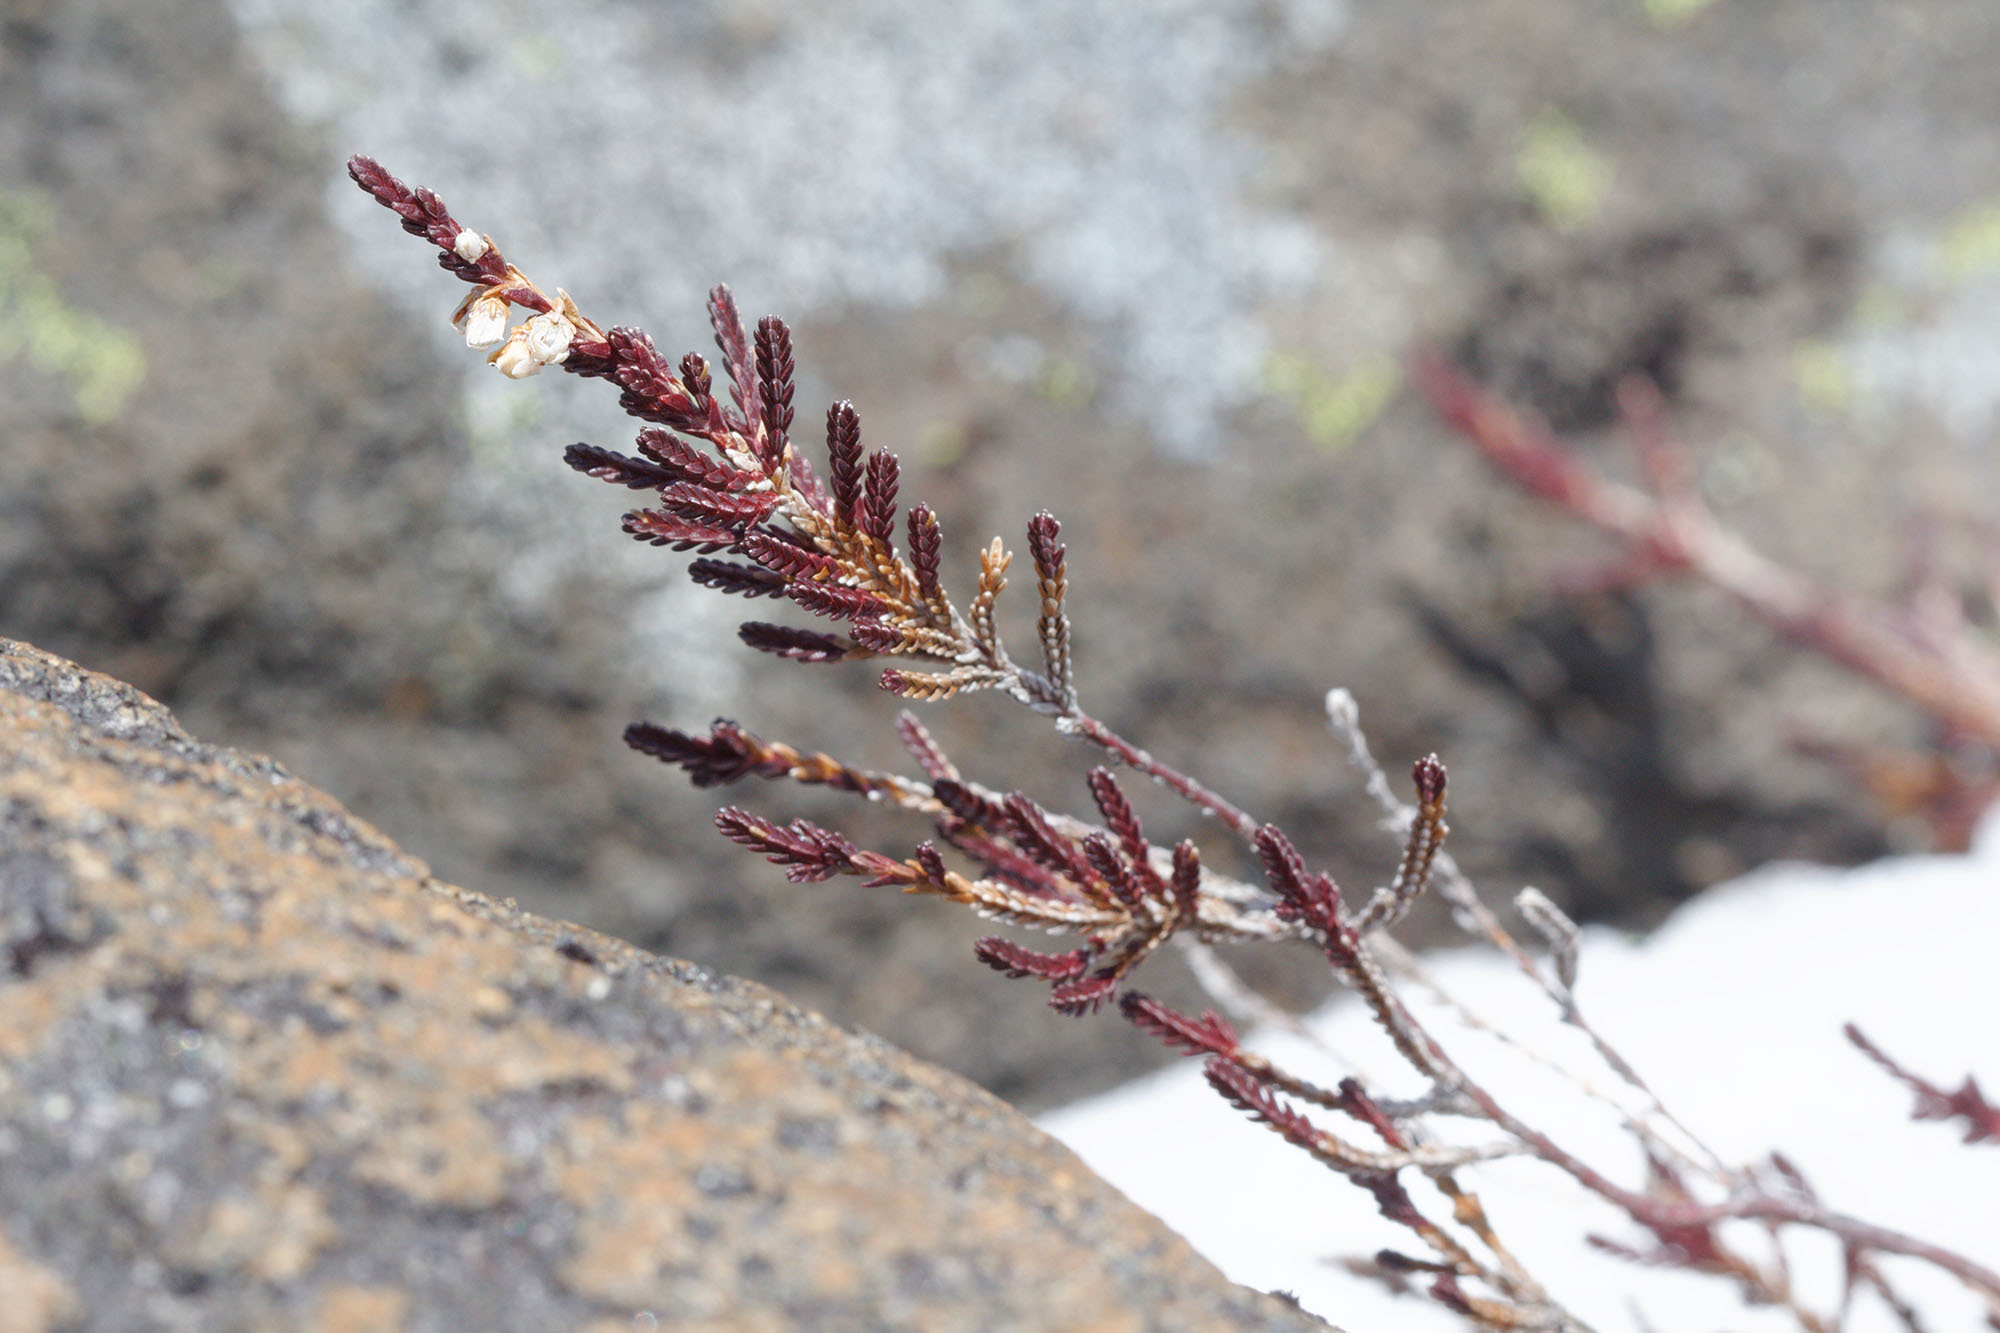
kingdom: Plantae
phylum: Tracheophyta
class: Magnoliopsida
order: Ericales
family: Ericaceae
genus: Calluna
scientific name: Calluna vulgaris
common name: Heather
